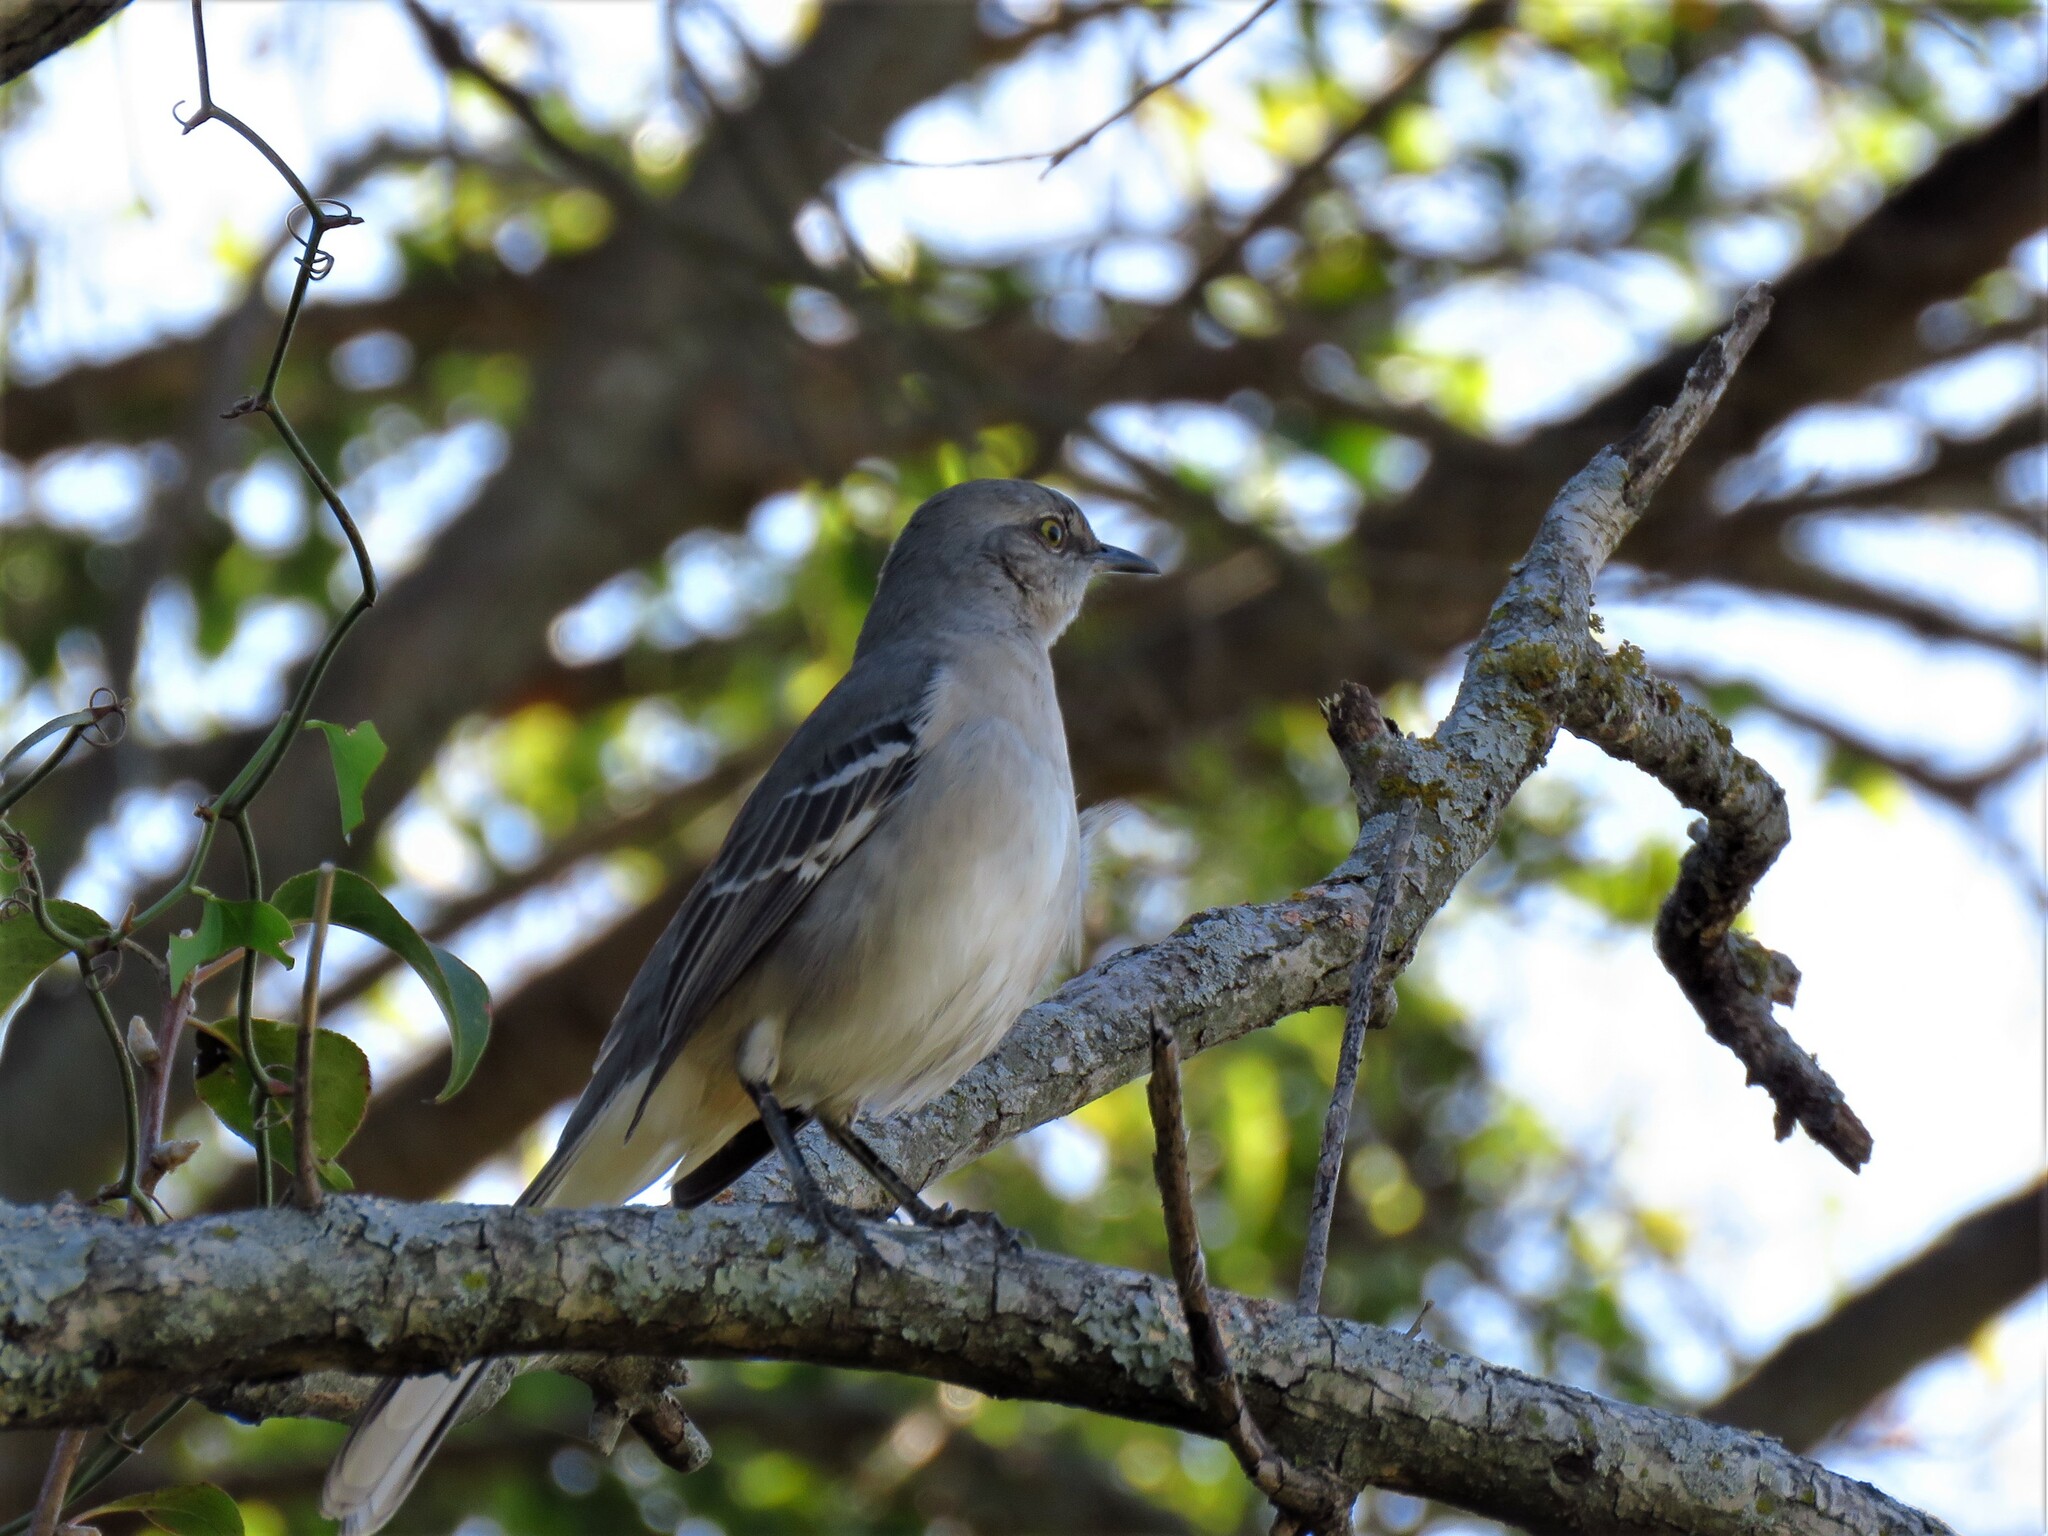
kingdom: Animalia
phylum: Chordata
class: Aves
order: Passeriformes
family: Mimidae
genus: Mimus
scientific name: Mimus polyglottos
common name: Northern mockingbird
